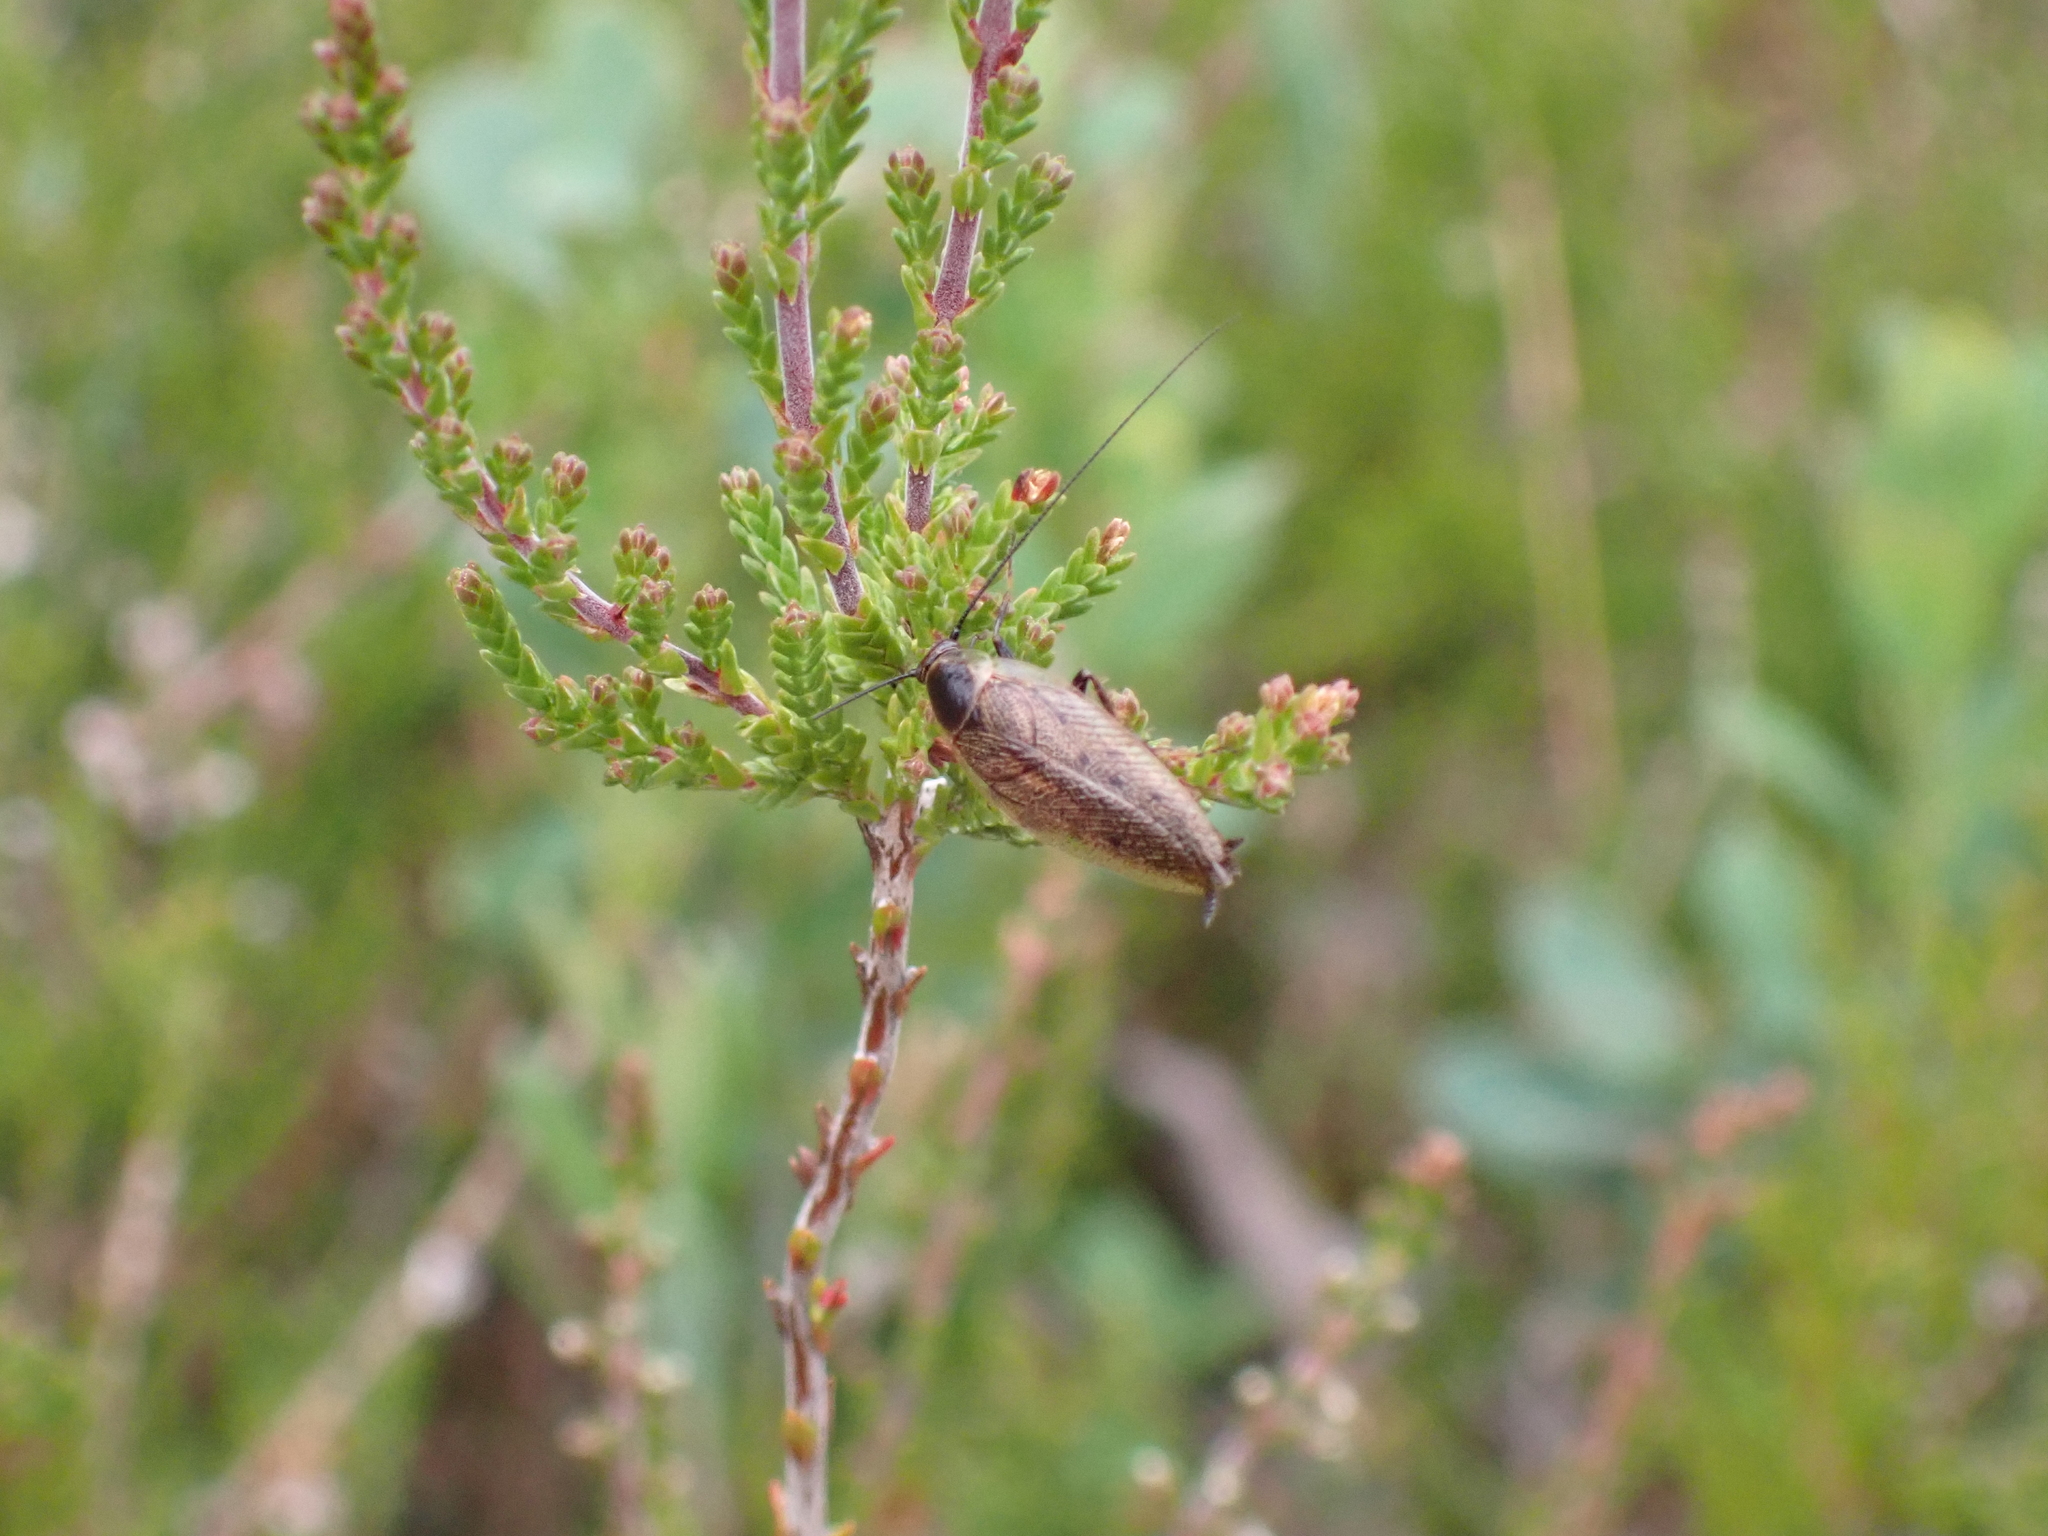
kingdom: Animalia
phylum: Arthropoda
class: Insecta
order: Blattodea
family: Ectobiidae
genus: Ectobius
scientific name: Ectobius lapponicus
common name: Dusky cockroach
